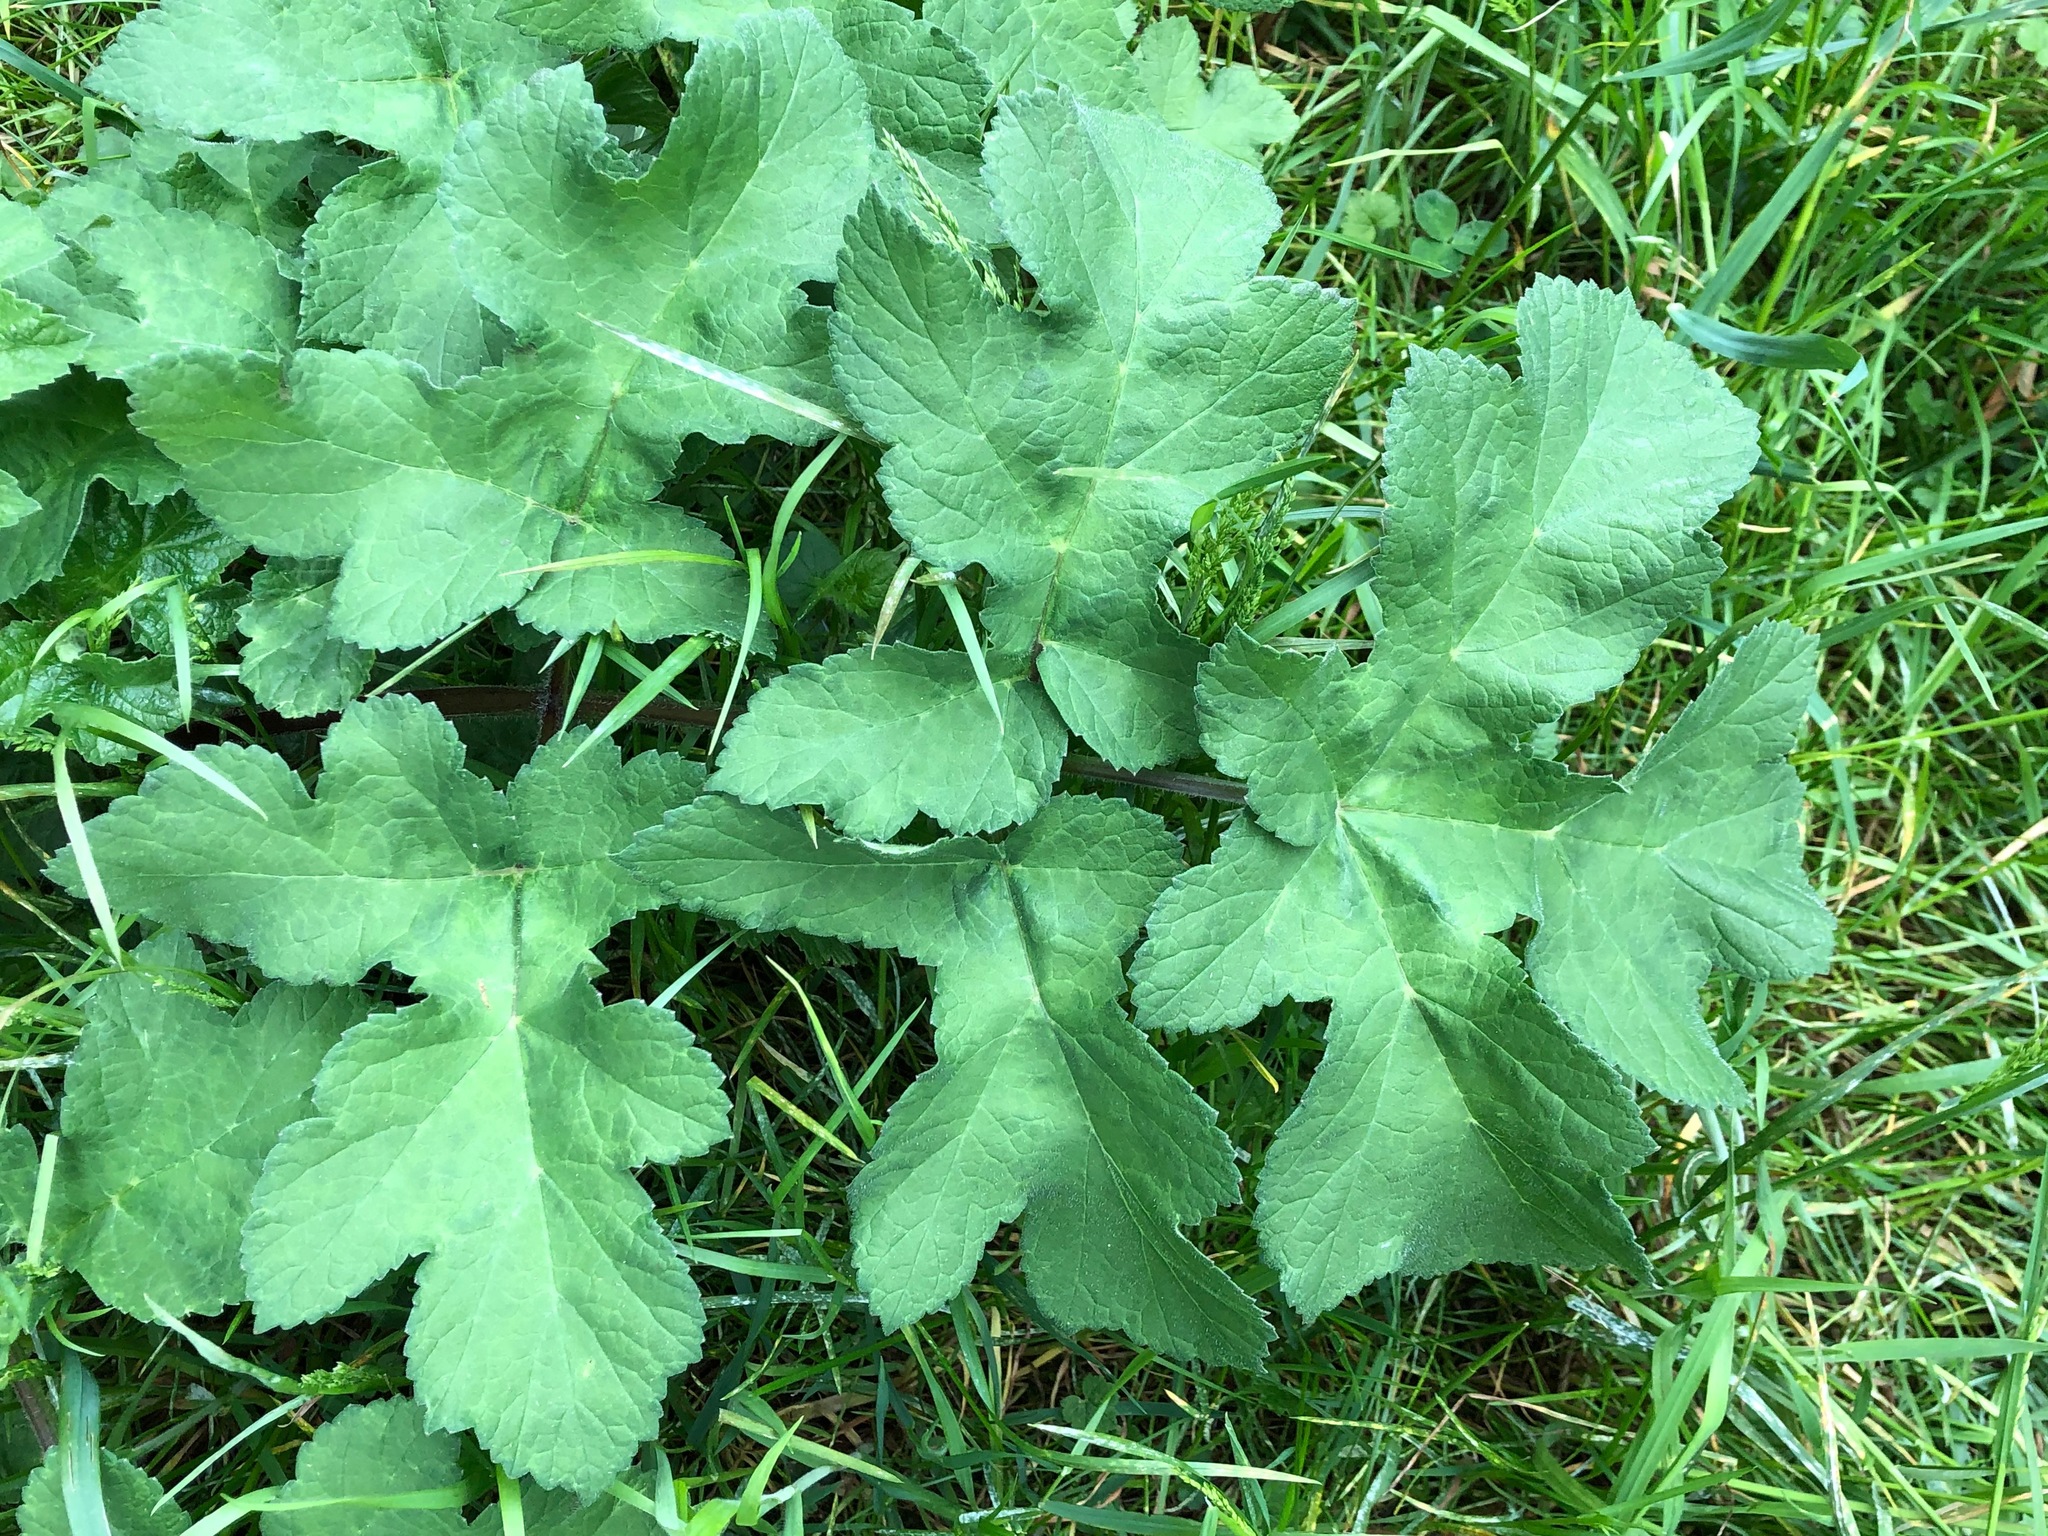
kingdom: Plantae
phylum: Tracheophyta
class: Magnoliopsida
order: Apiales
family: Apiaceae
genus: Heracleum
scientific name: Heracleum sphondylium
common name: Hogweed
